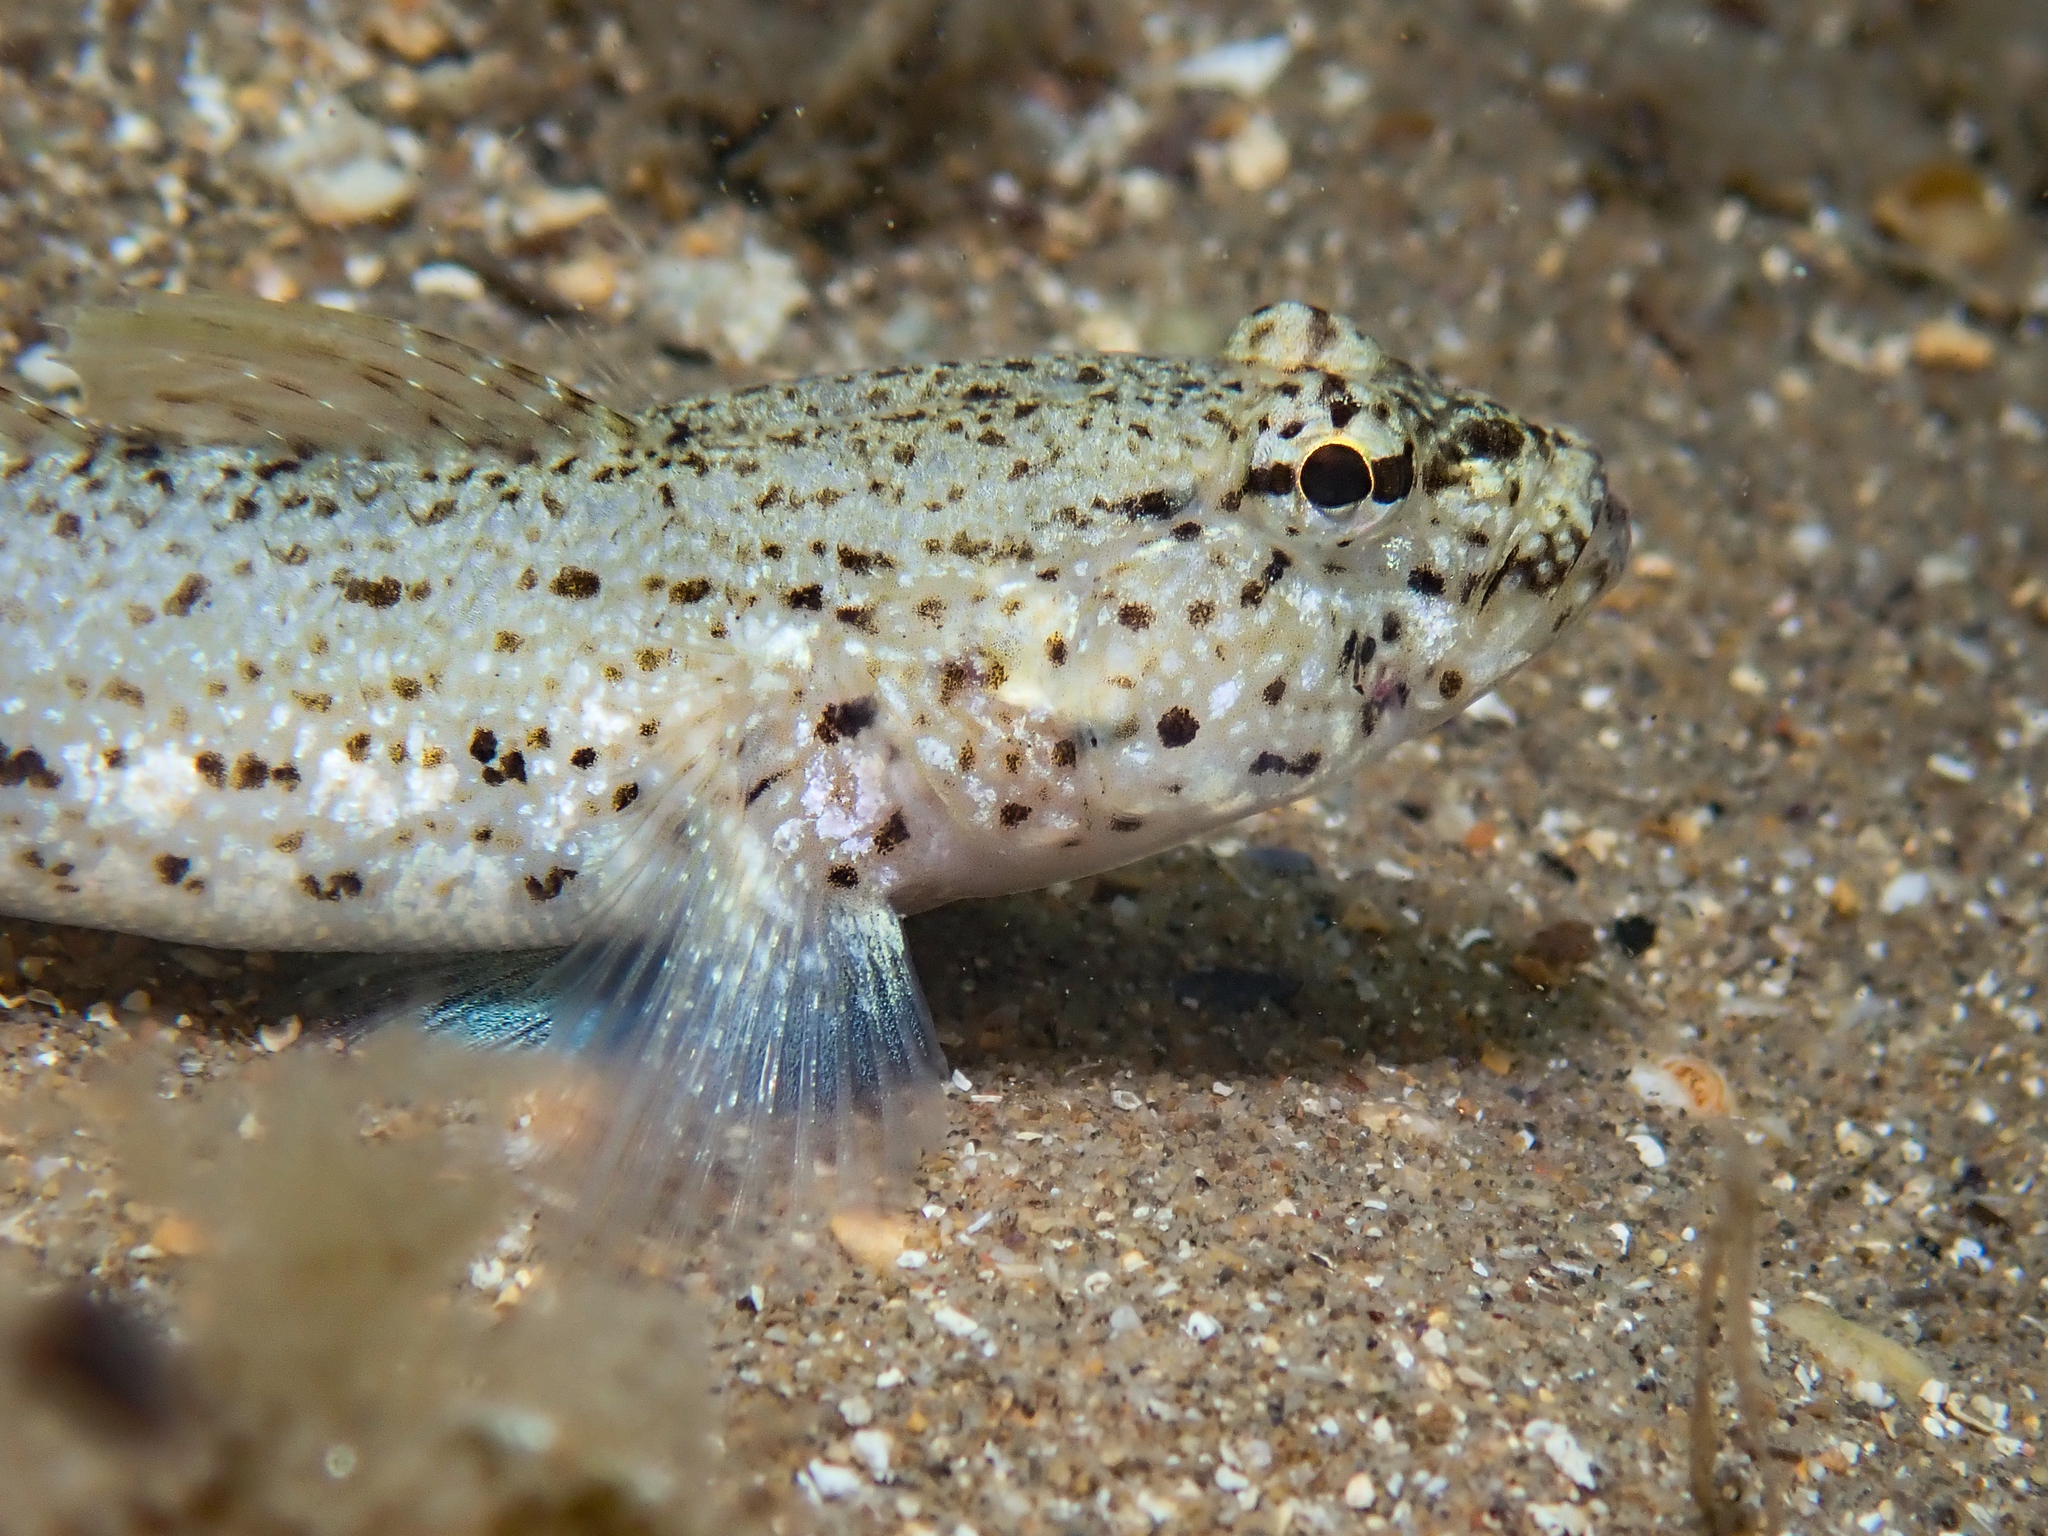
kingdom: Animalia
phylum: Chordata
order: Perciformes
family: Gobiidae
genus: Gobius
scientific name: Gobius incognitus
